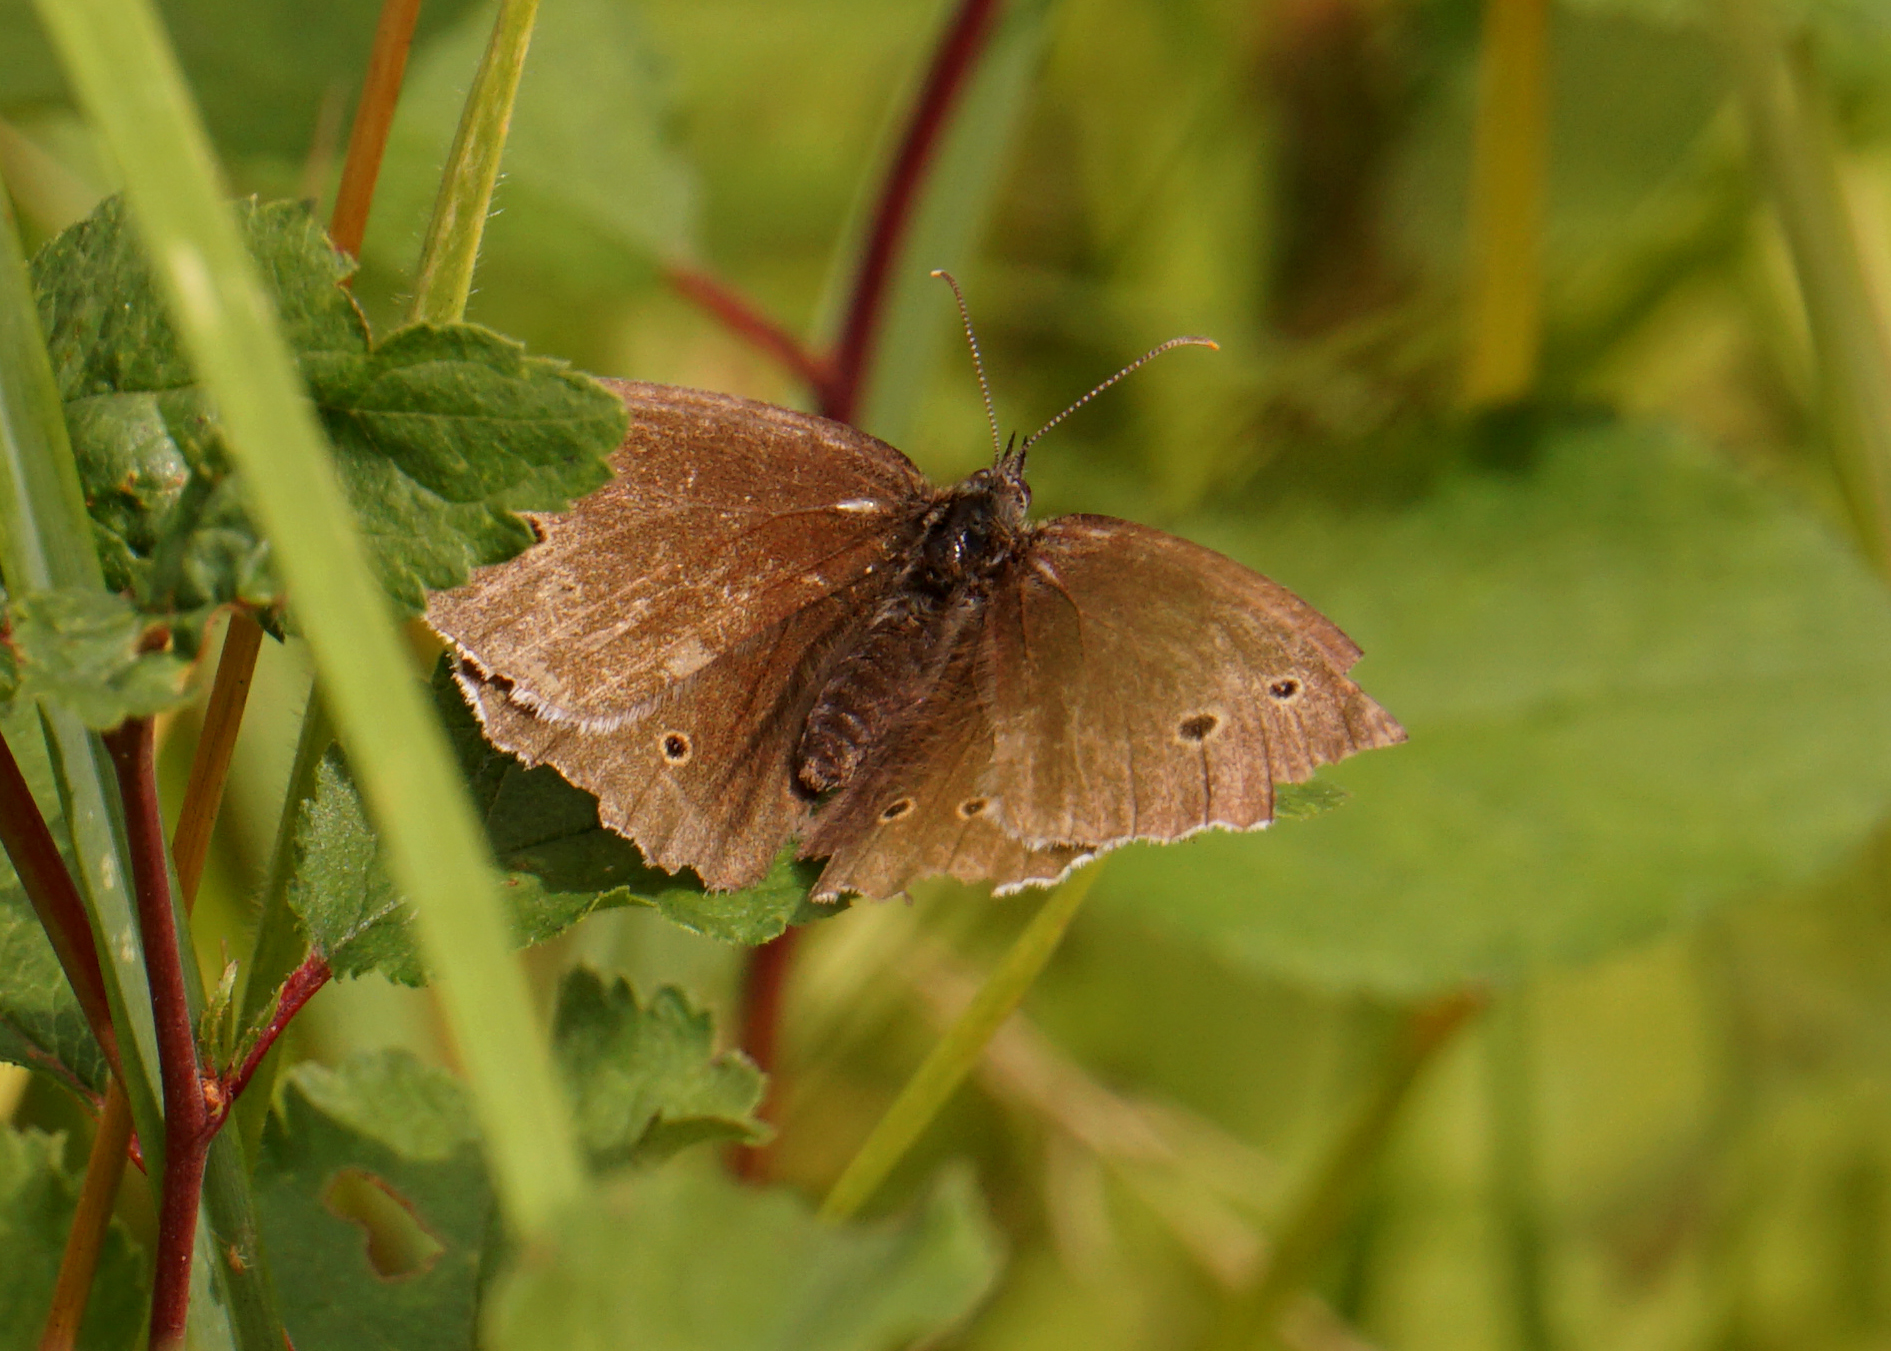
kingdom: Animalia
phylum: Arthropoda
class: Insecta
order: Lepidoptera
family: Nymphalidae
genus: Aphantopus
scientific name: Aphantopus hyperantus
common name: Ringlet
